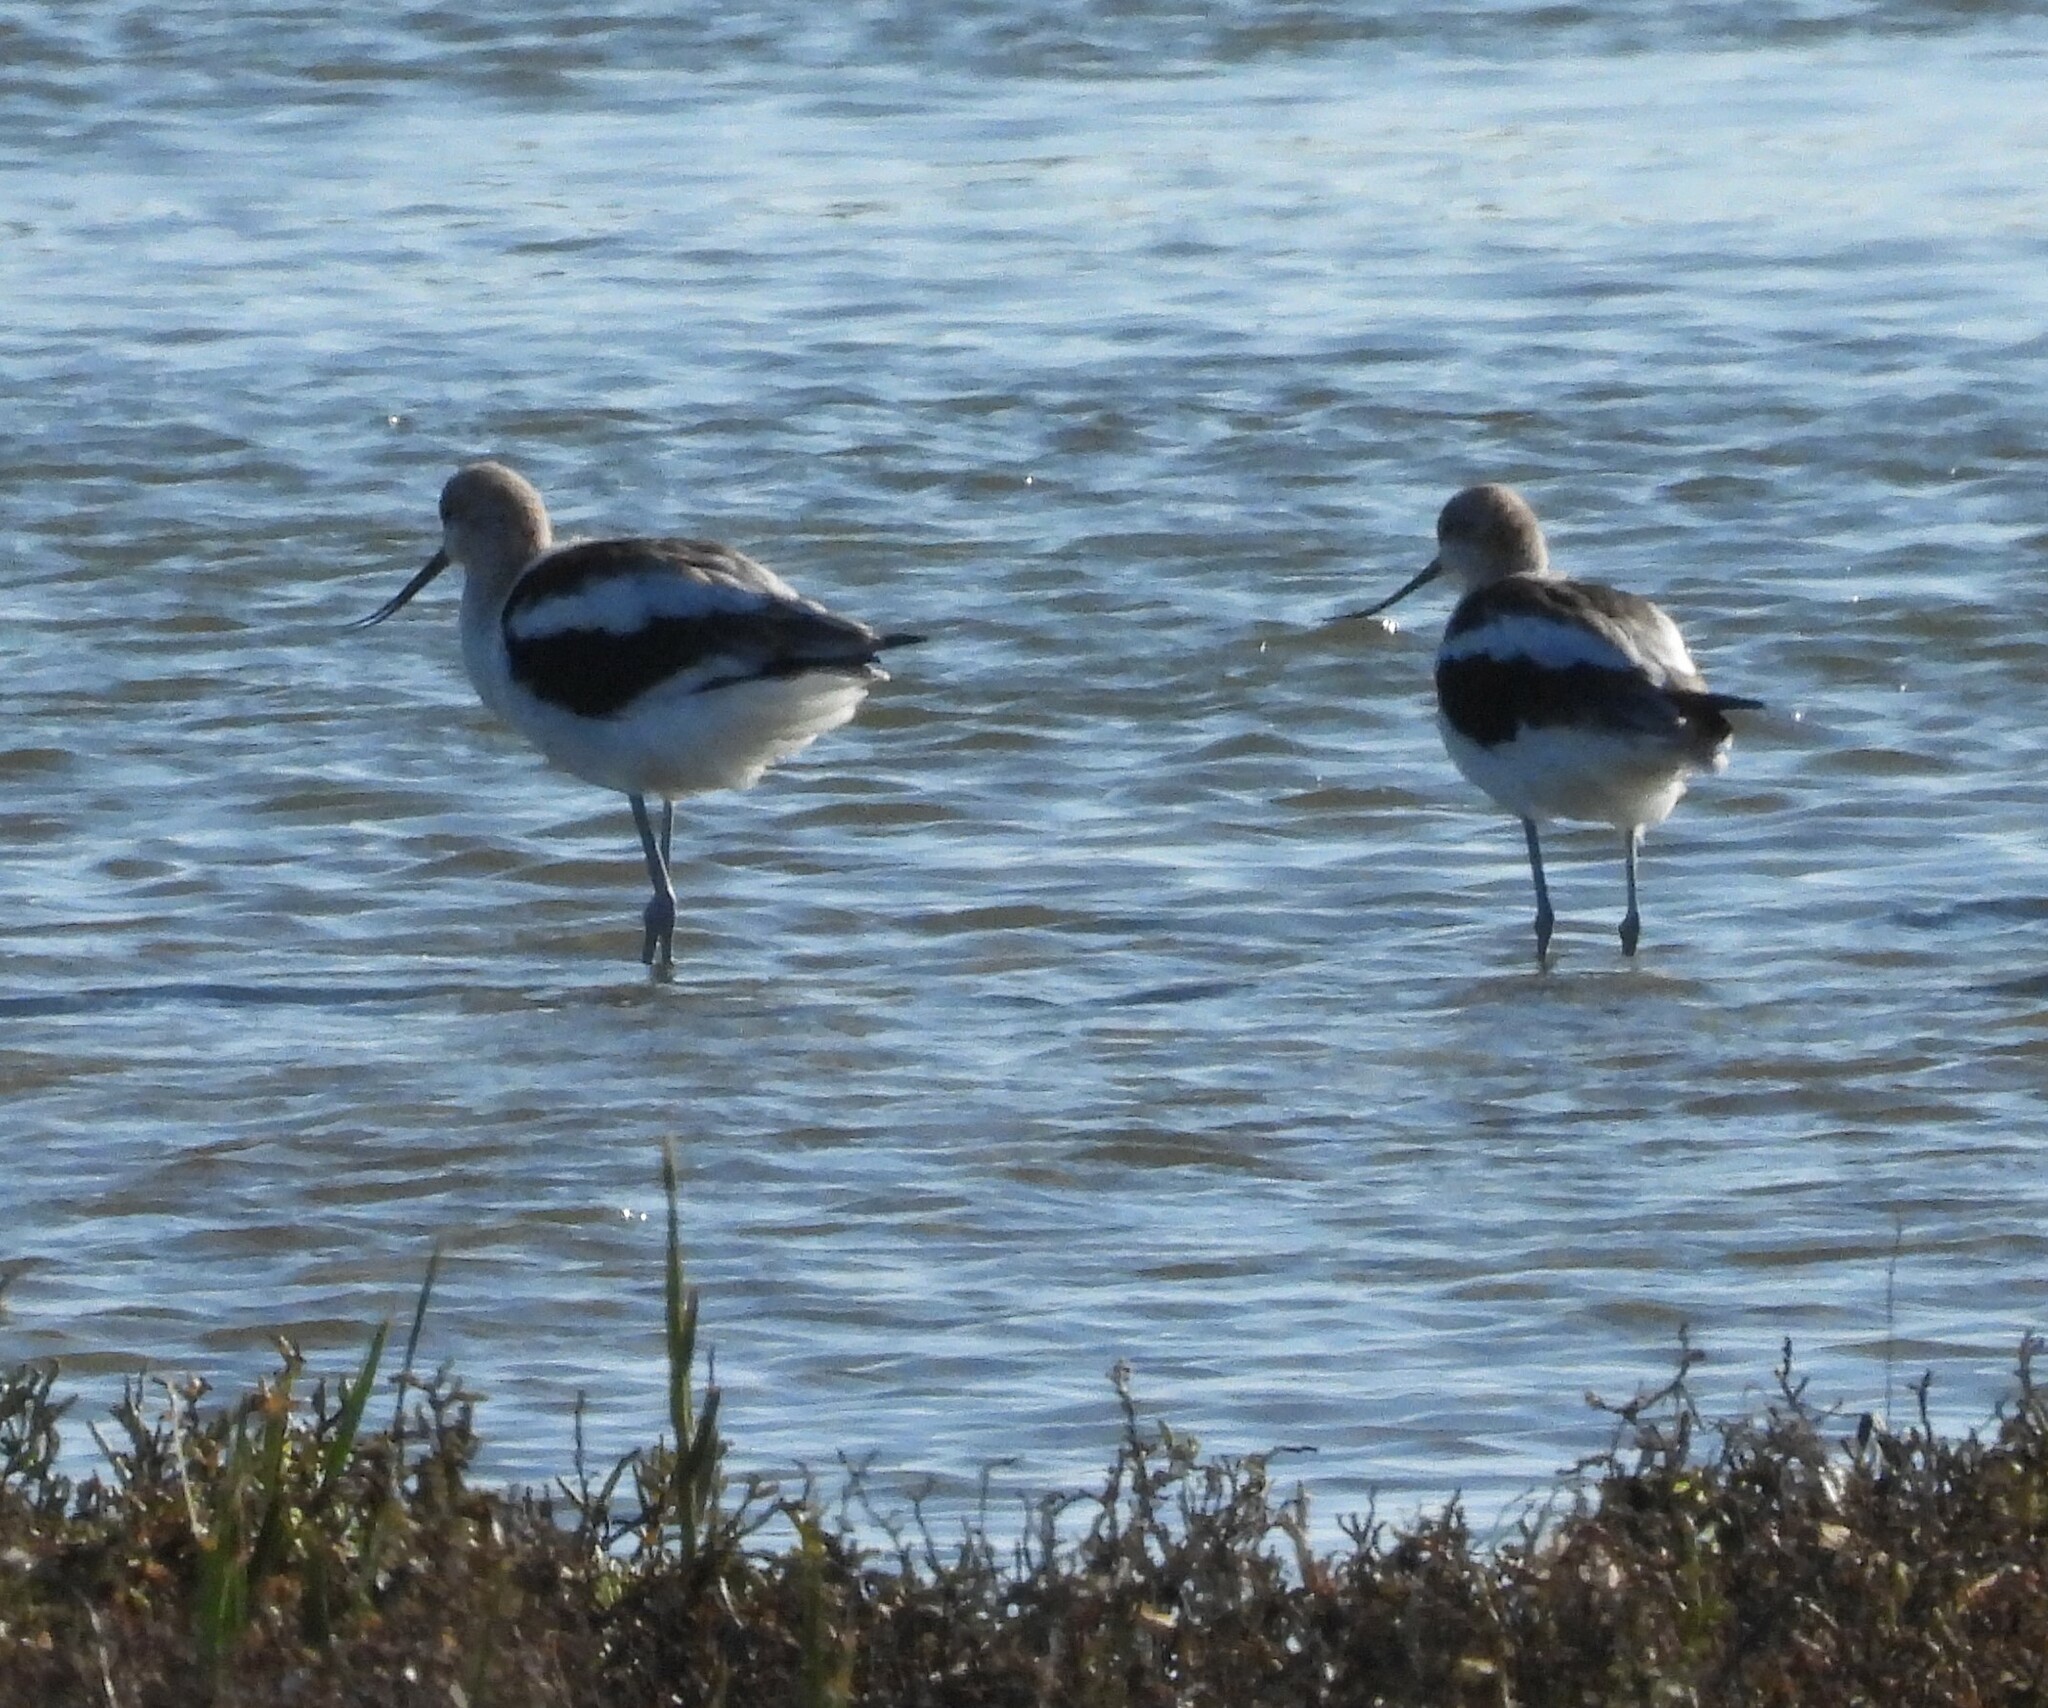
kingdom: Animalia
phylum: Chordata
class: Aves
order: Charadriiformes
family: Recurvirostridae
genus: Recurvirostra
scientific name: Recurvirostra americana
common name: American avocet
